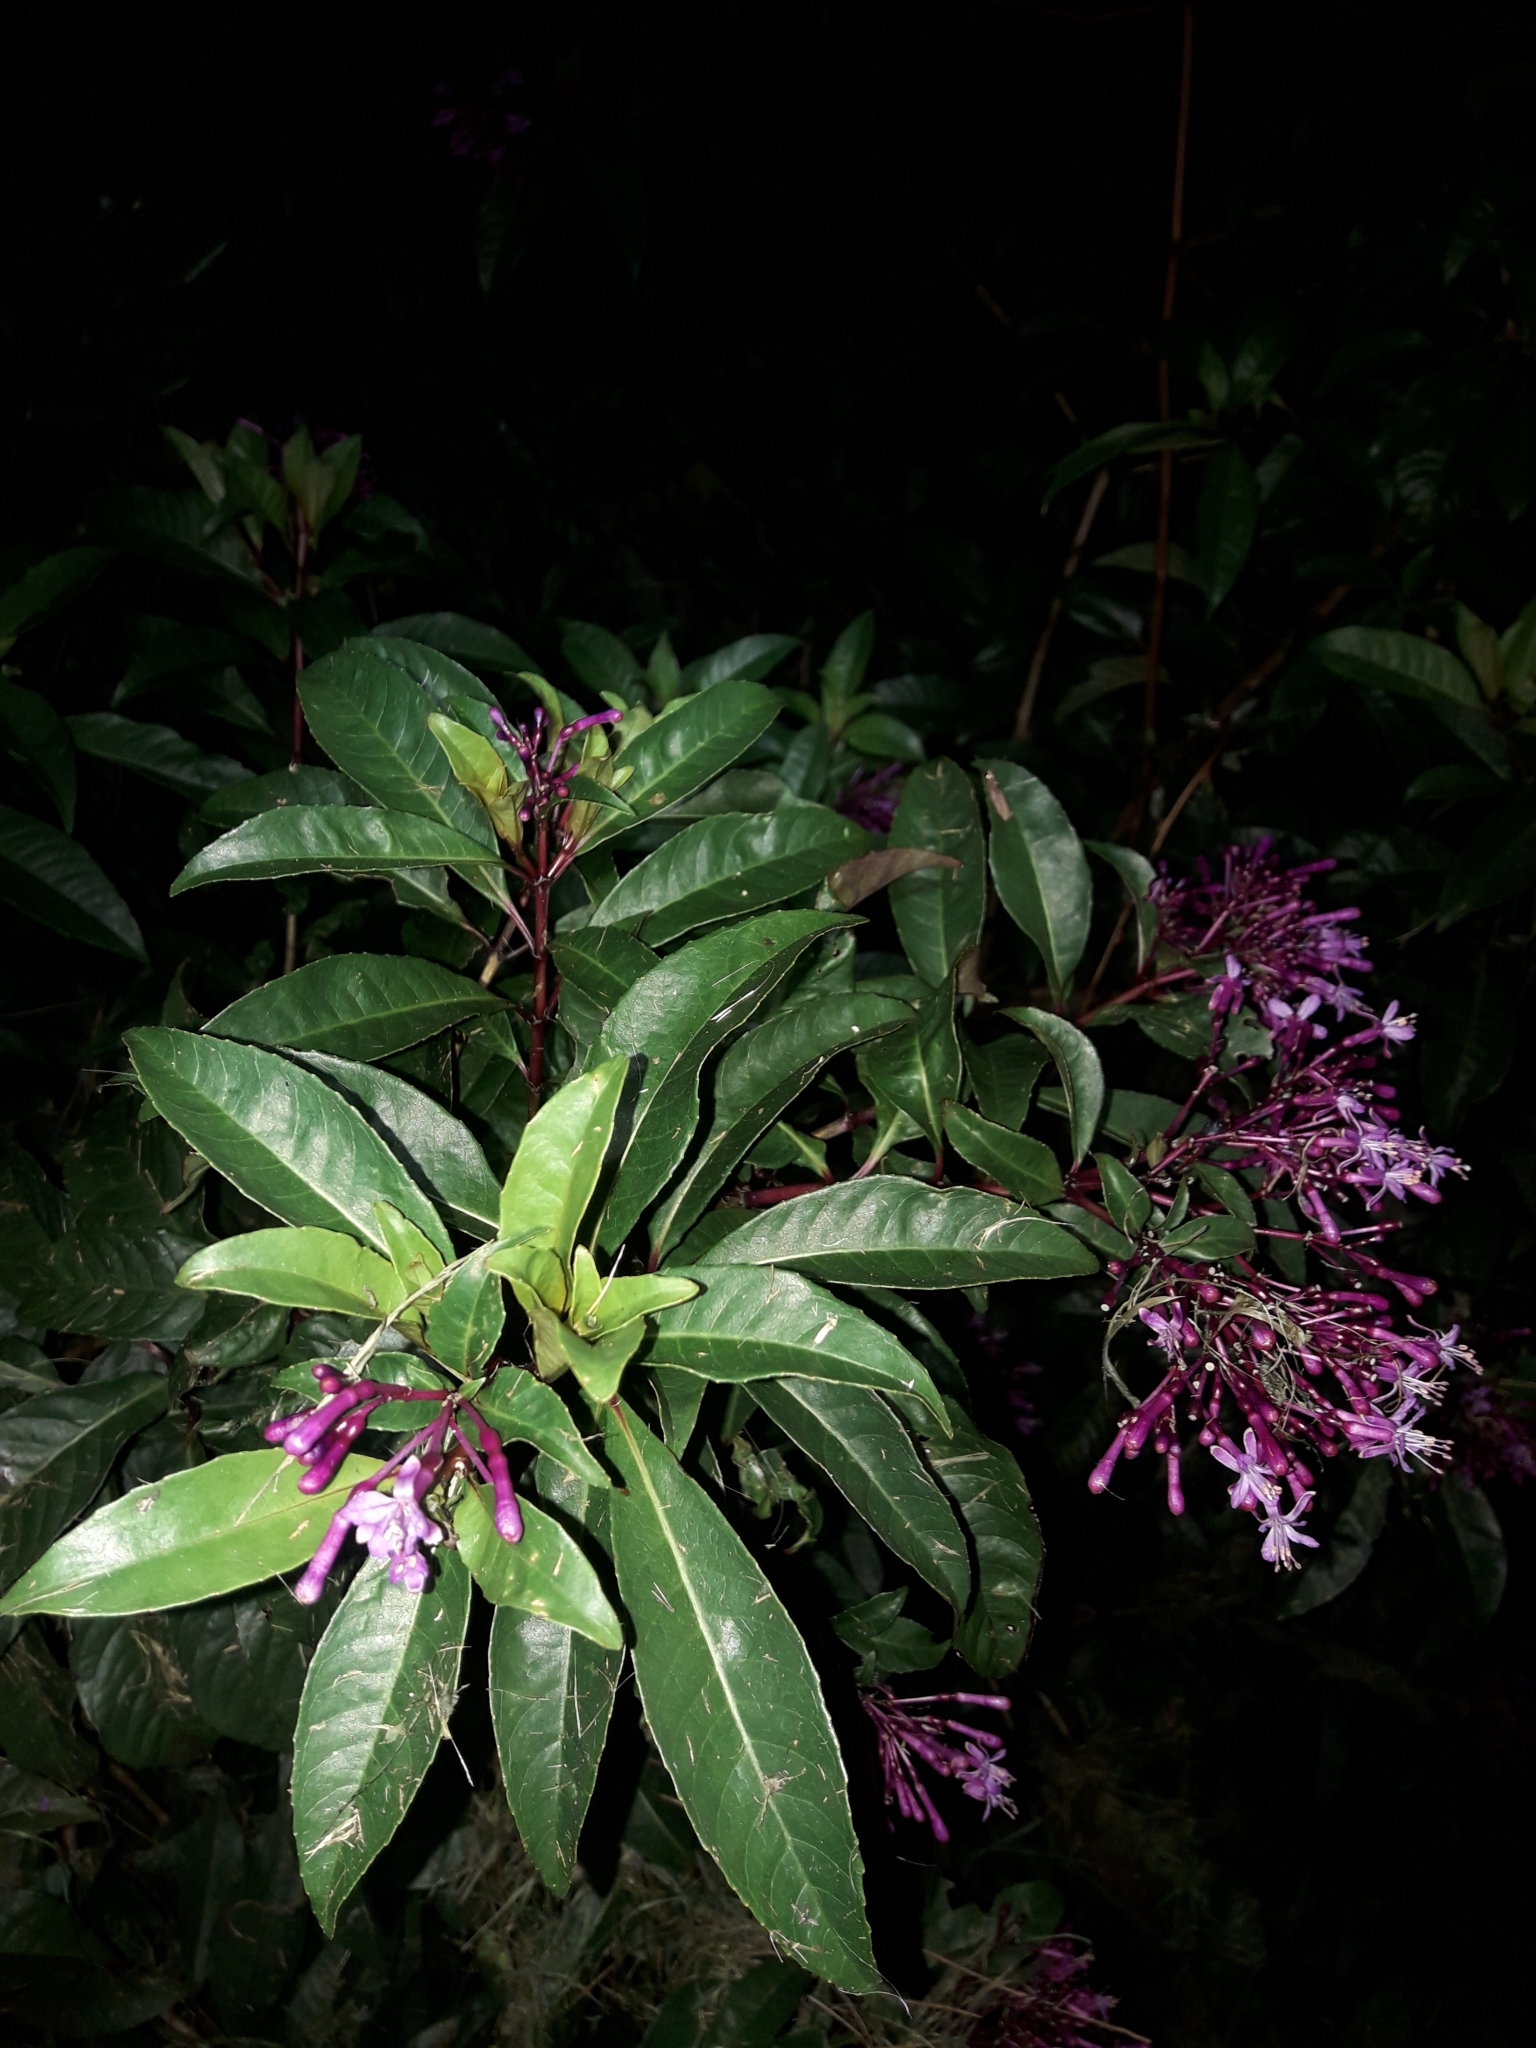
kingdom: Plantae
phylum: Tracheophyta
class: Magnoliopsida
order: Myrtales
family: Onagraceae
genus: Fuchsia
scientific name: Fuchsia paniculata
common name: Shrubby fuchsia
